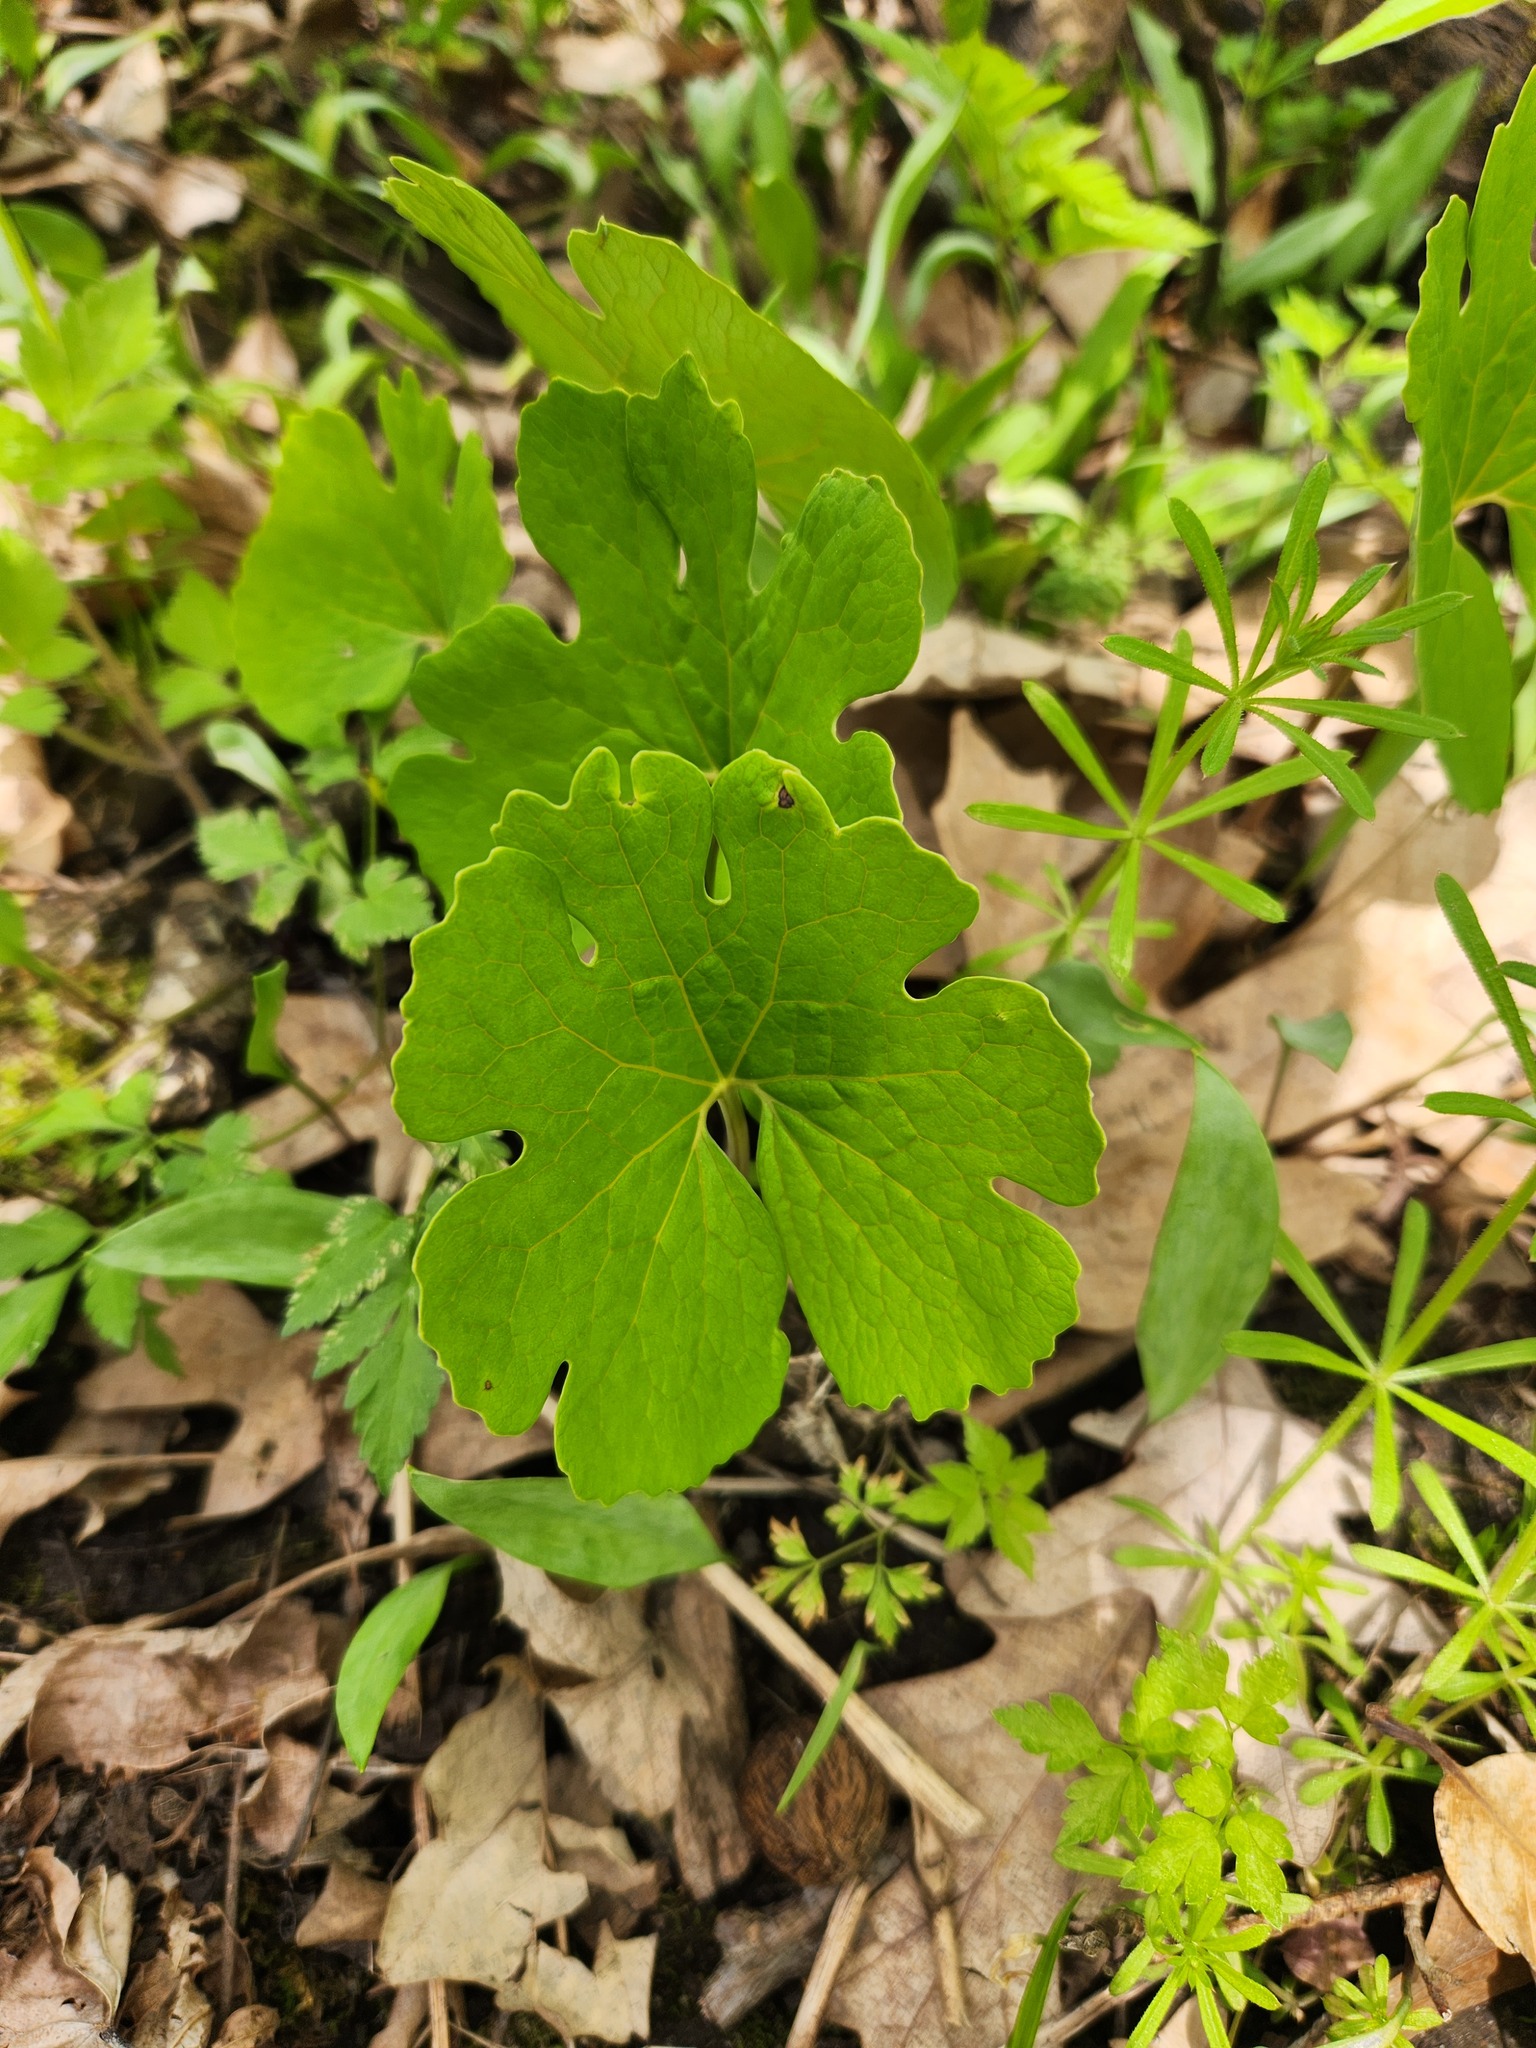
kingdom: Plantae
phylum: Tracheophyta
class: Magnoliopsida
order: Ranunculales
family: Papaveraceae
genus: Sanguinaria
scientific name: Sanguinaria canadensis
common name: Bloodroot
